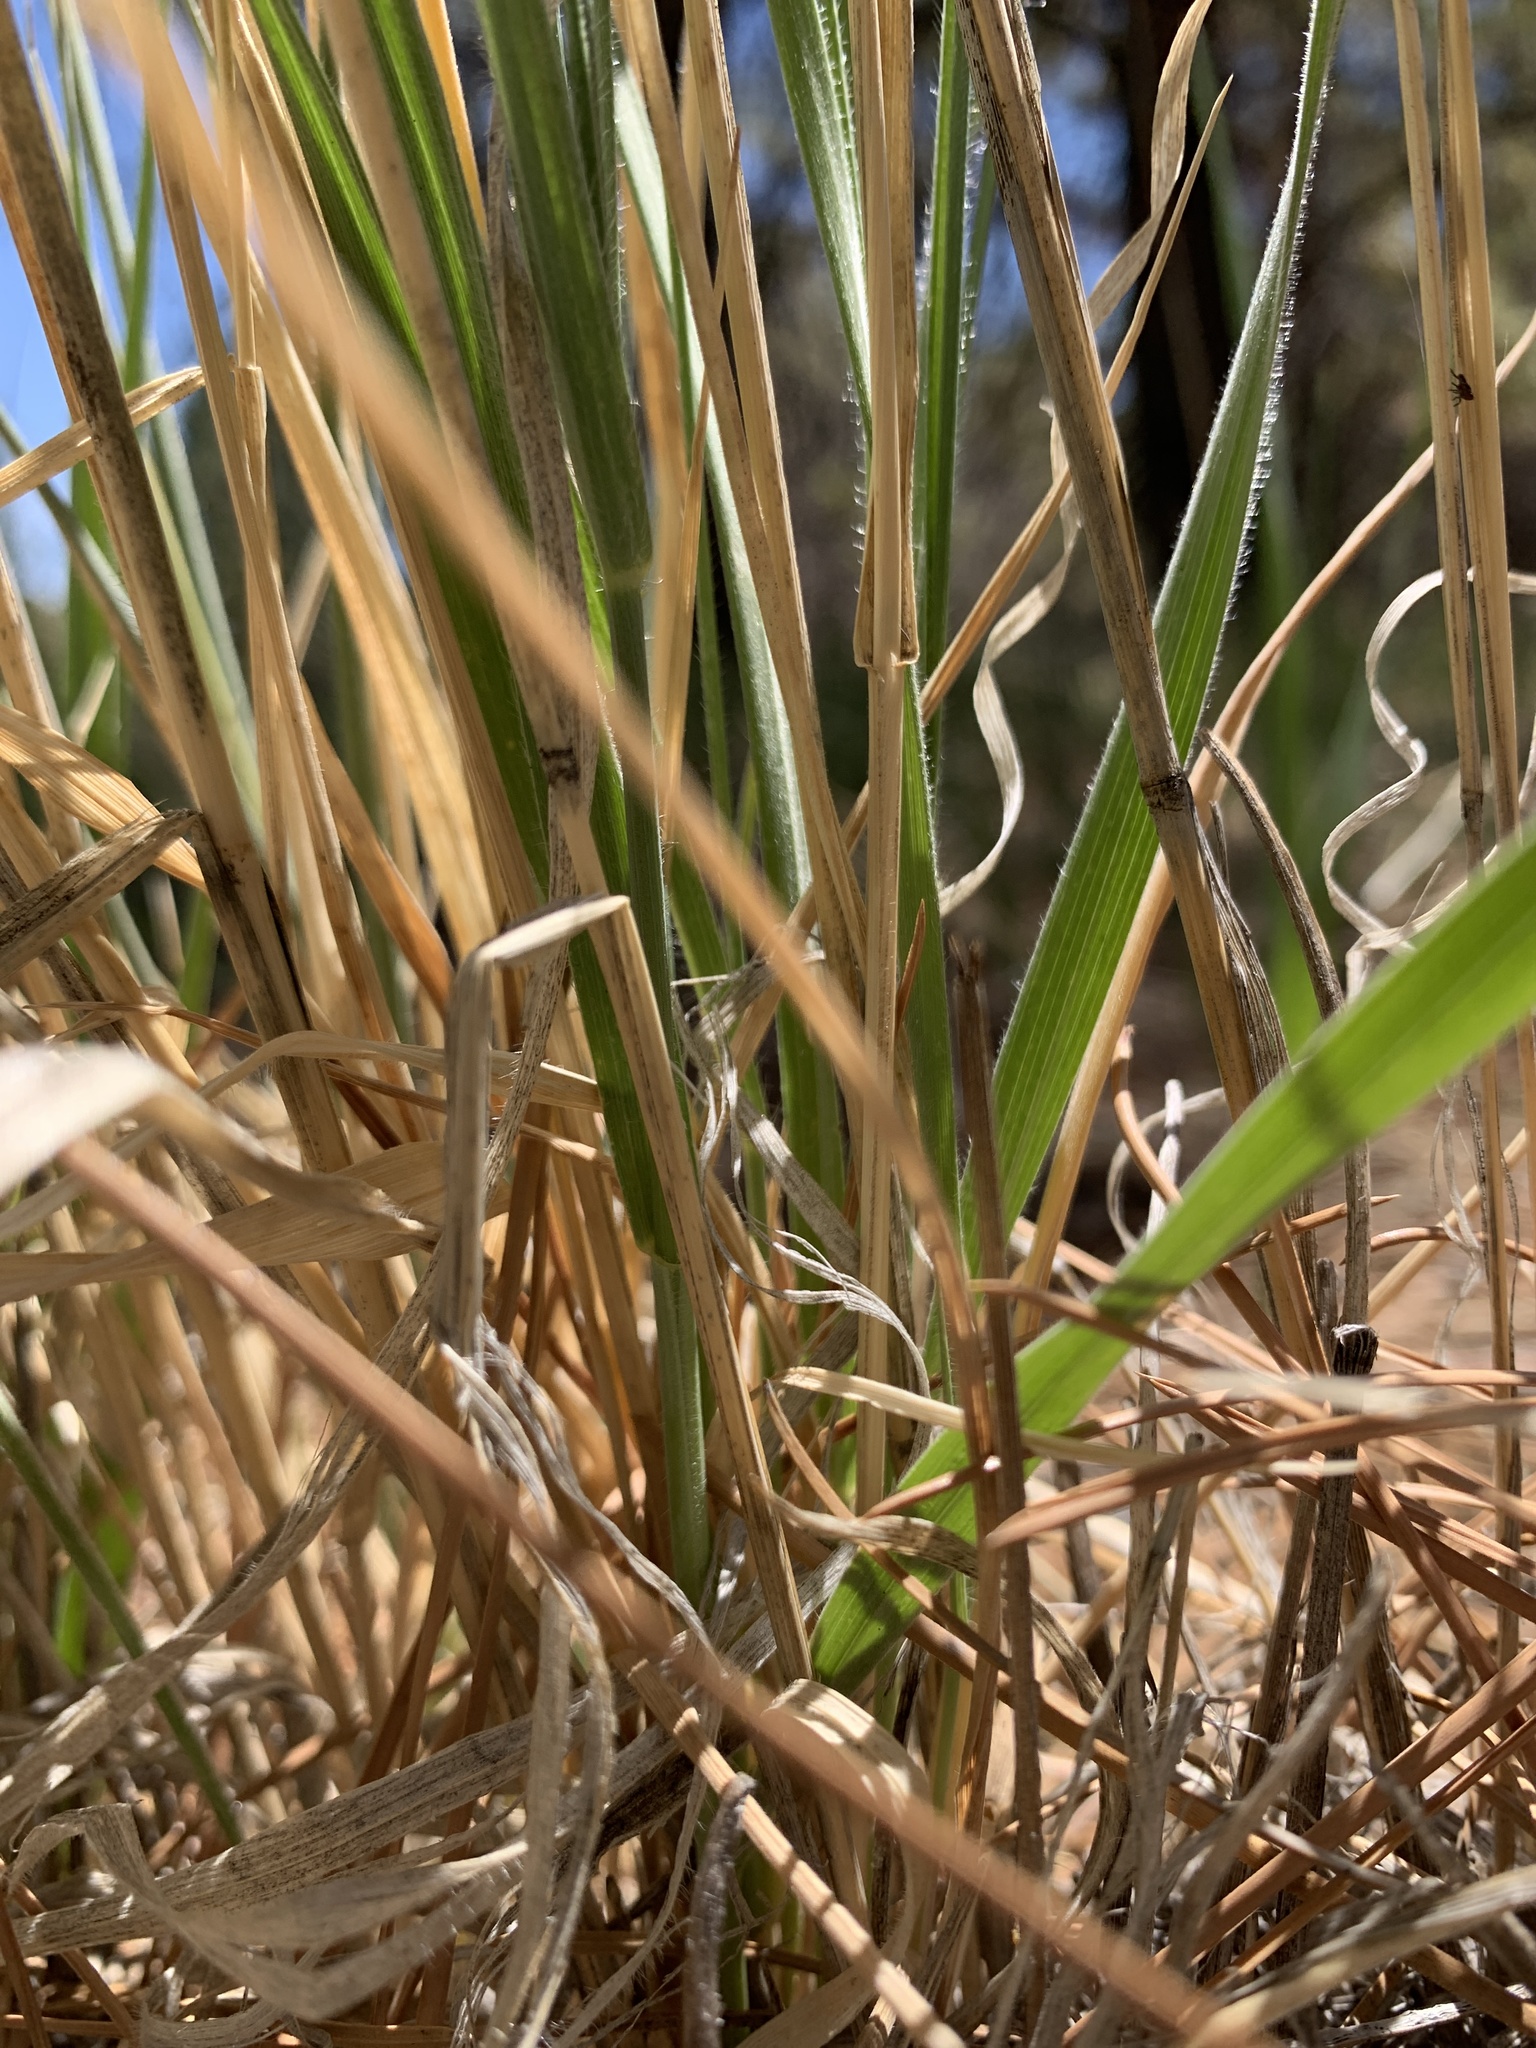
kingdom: Plantae
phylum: Tracheophyta
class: Liliopsida
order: Poales
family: Poaceae
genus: Thinopyrum
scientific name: Thinopyrum intermedium
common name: Intermediate wheatgrass
